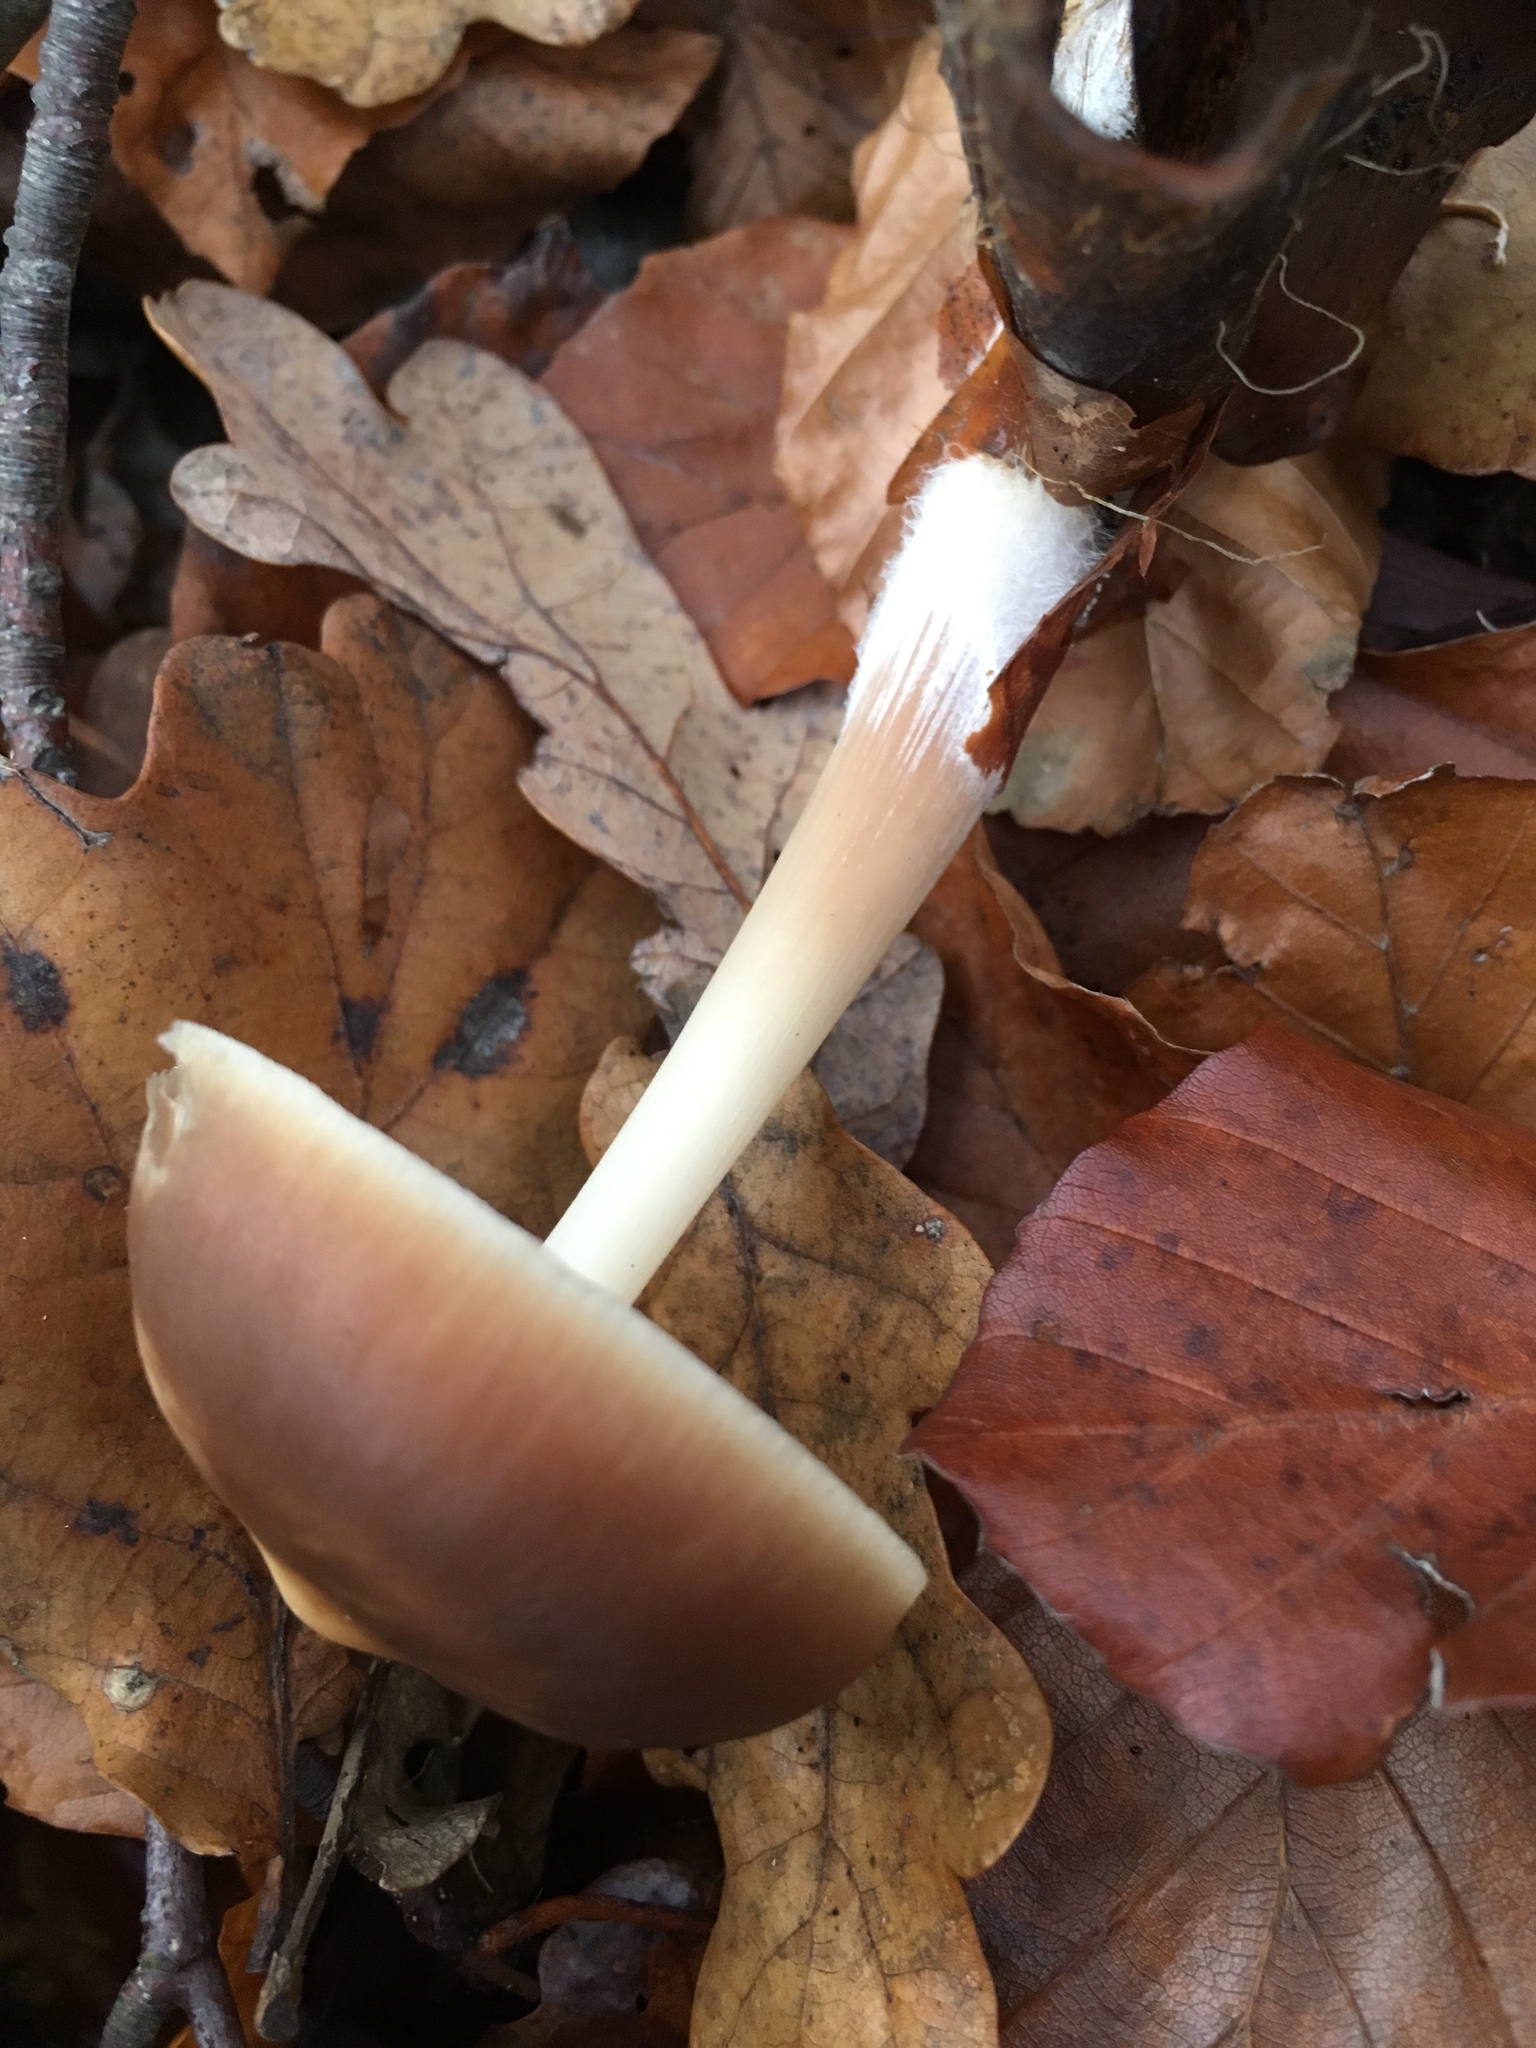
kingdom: Fungi
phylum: Basidiomycota
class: Agaricomycetes
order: Agaricales
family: Omphalotaceae
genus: Rhodocollybia
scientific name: Rhodocollybia butyracea
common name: Butter cap
